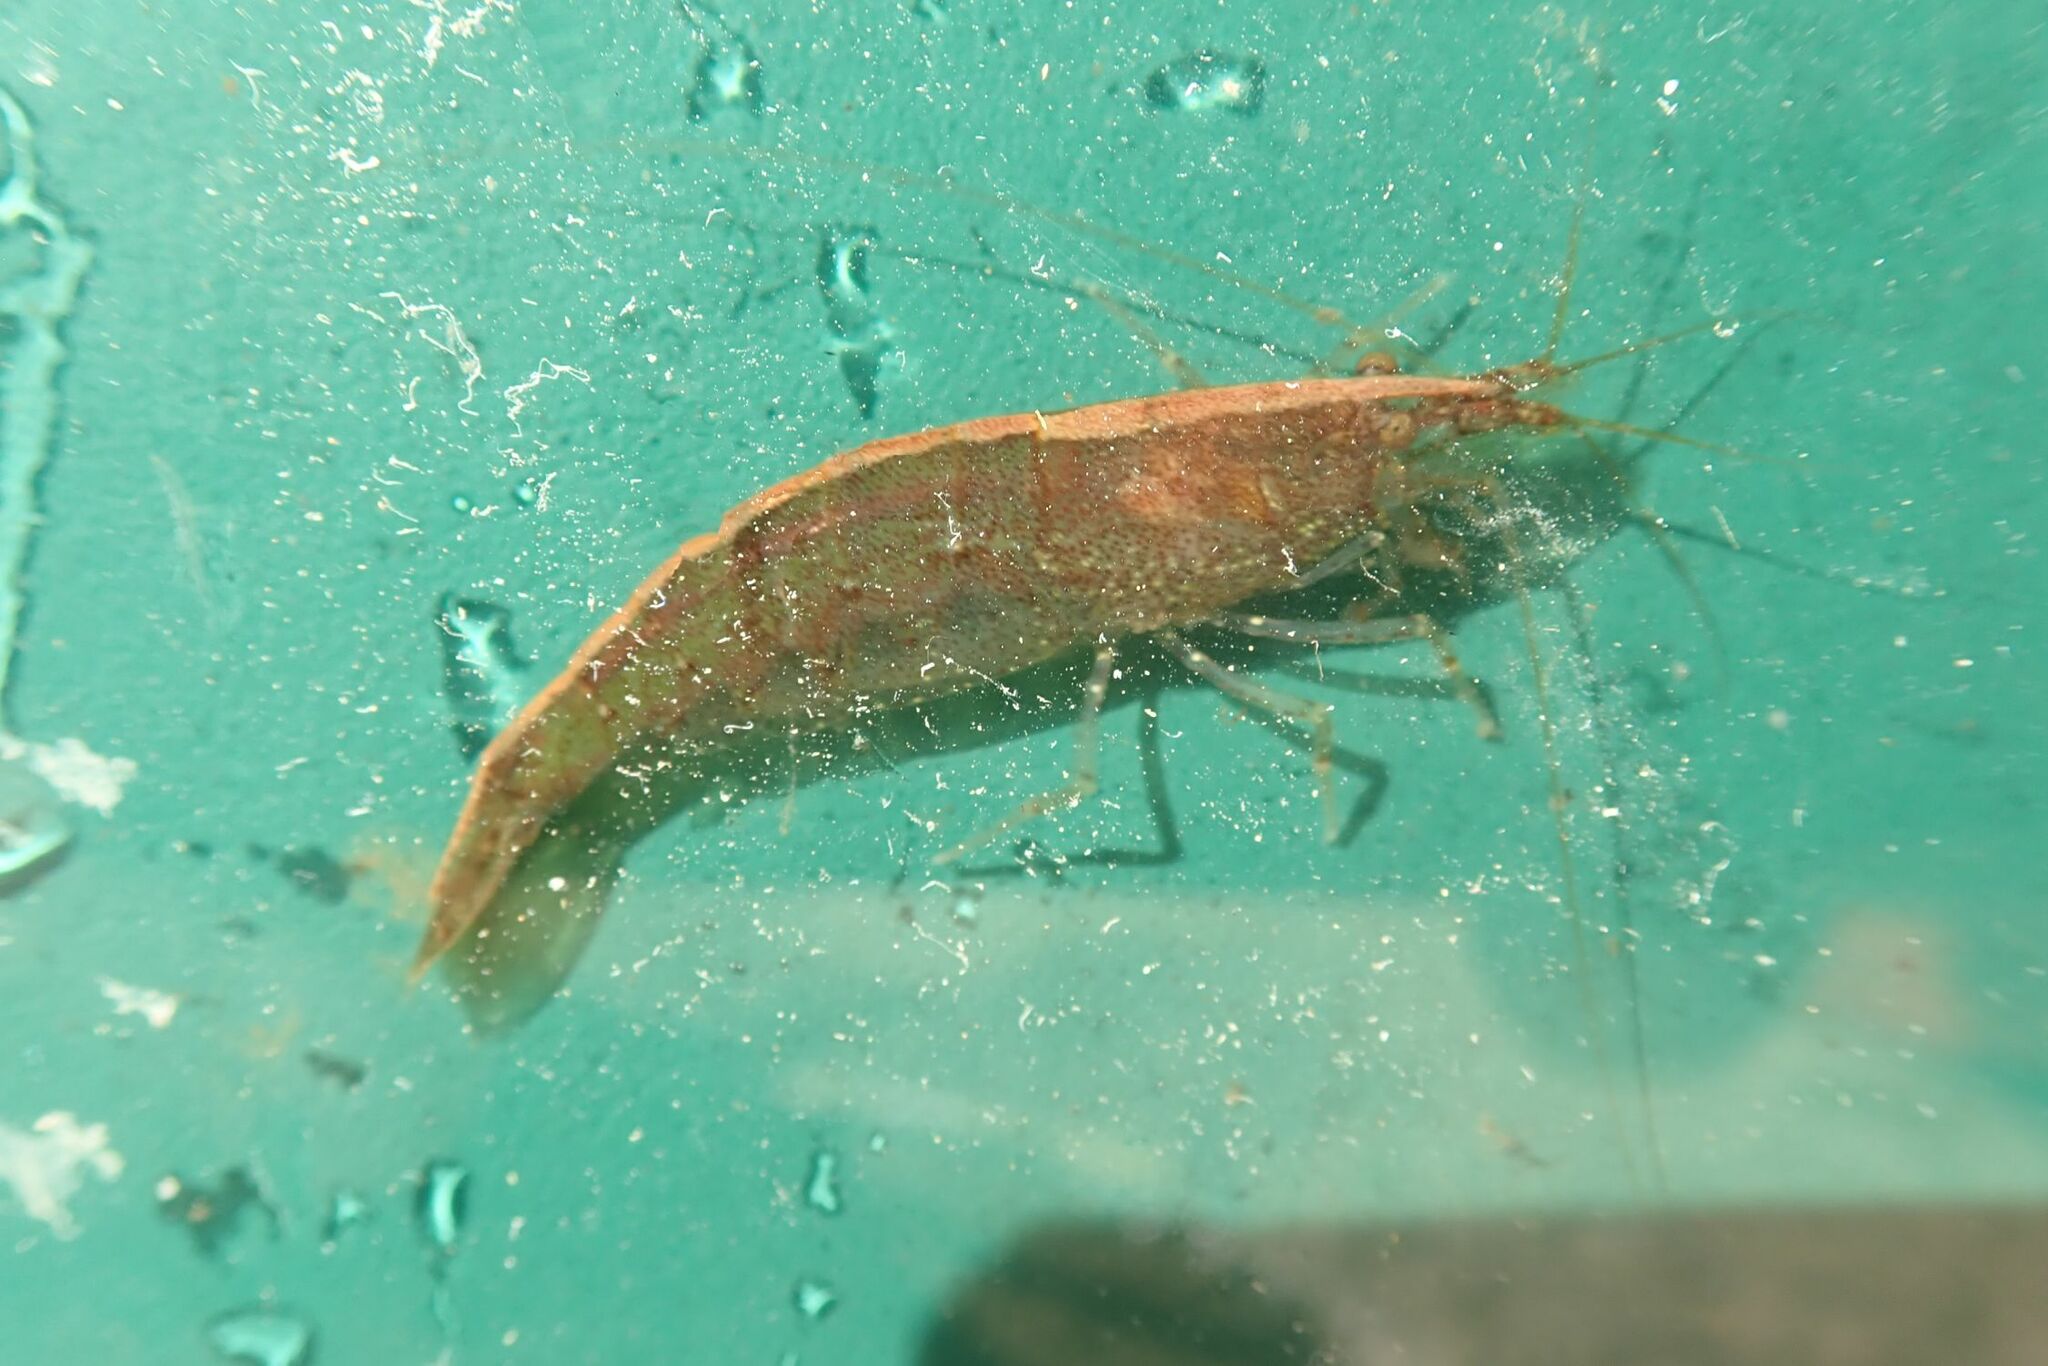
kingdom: Animalia
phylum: Arthropoda
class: Malacostraca
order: Decapoda
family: Atyidae
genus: Caridina
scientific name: Caridina typus
